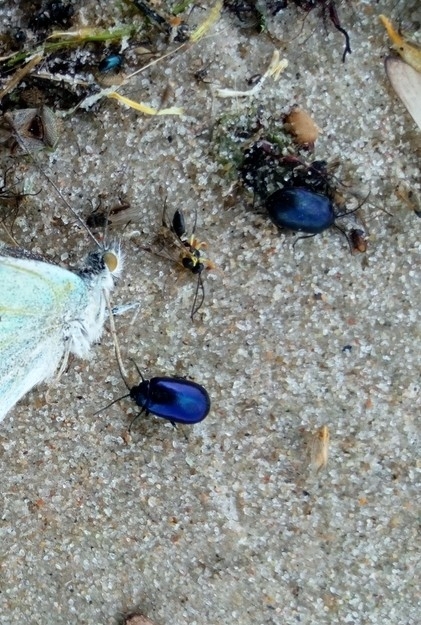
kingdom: Animalia
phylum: Arthropoda
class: Insecta
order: Coleoptera
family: Chrysomelidae
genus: Agelastica
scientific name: Agelastica alni
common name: Alder leaf beetle
